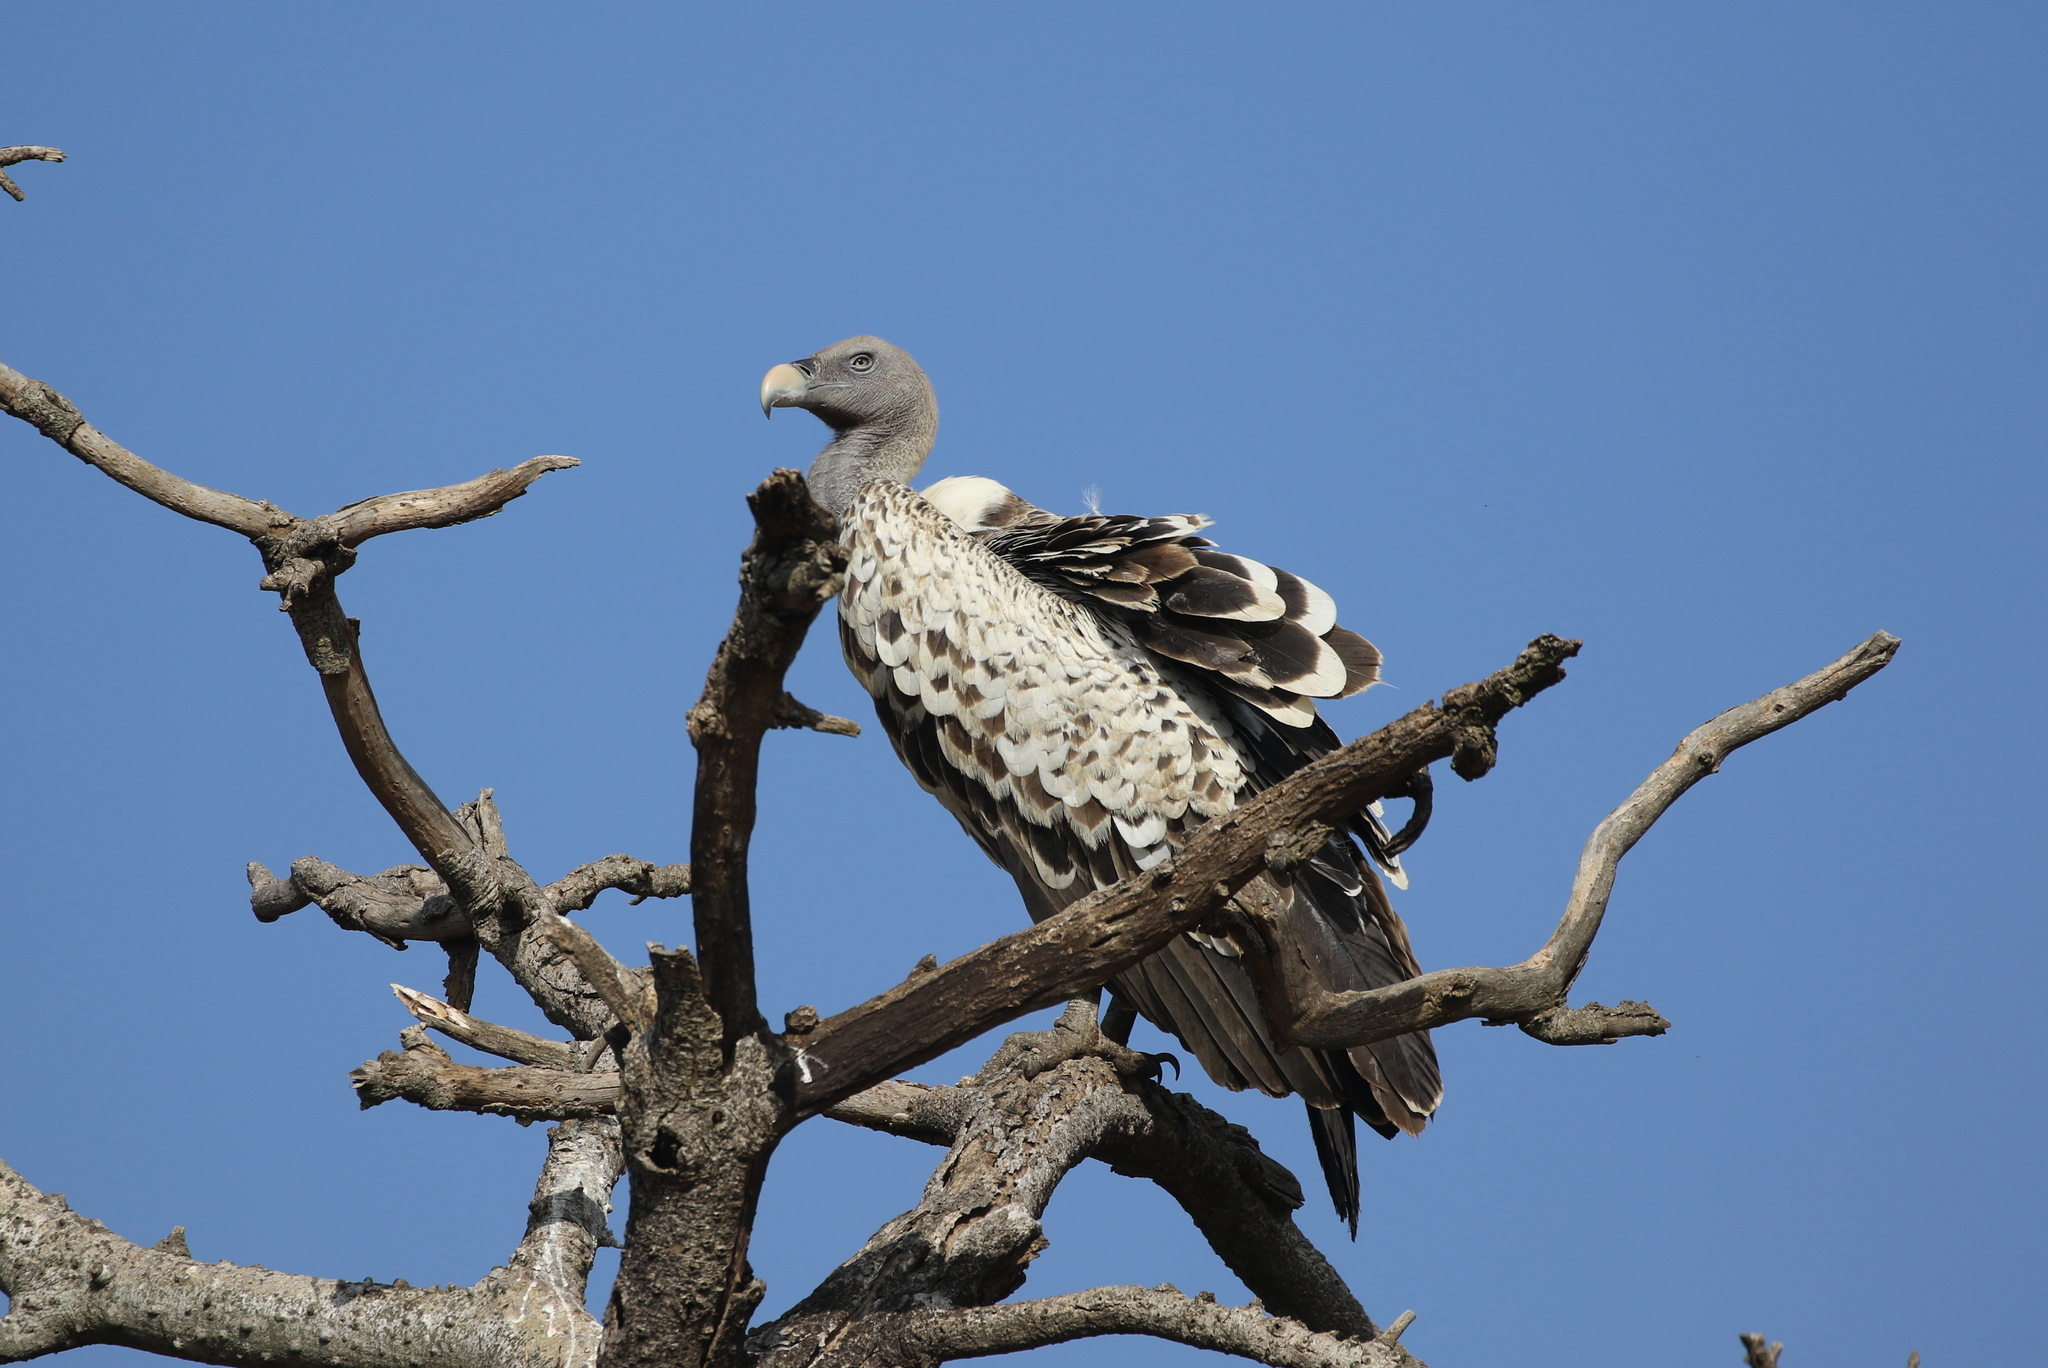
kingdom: Animalia
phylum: Chordata
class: Aves
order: Accipitriformes
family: Accipitridae
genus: Gyps
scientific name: Gyps rueppellii
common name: Rüppell's vulture
